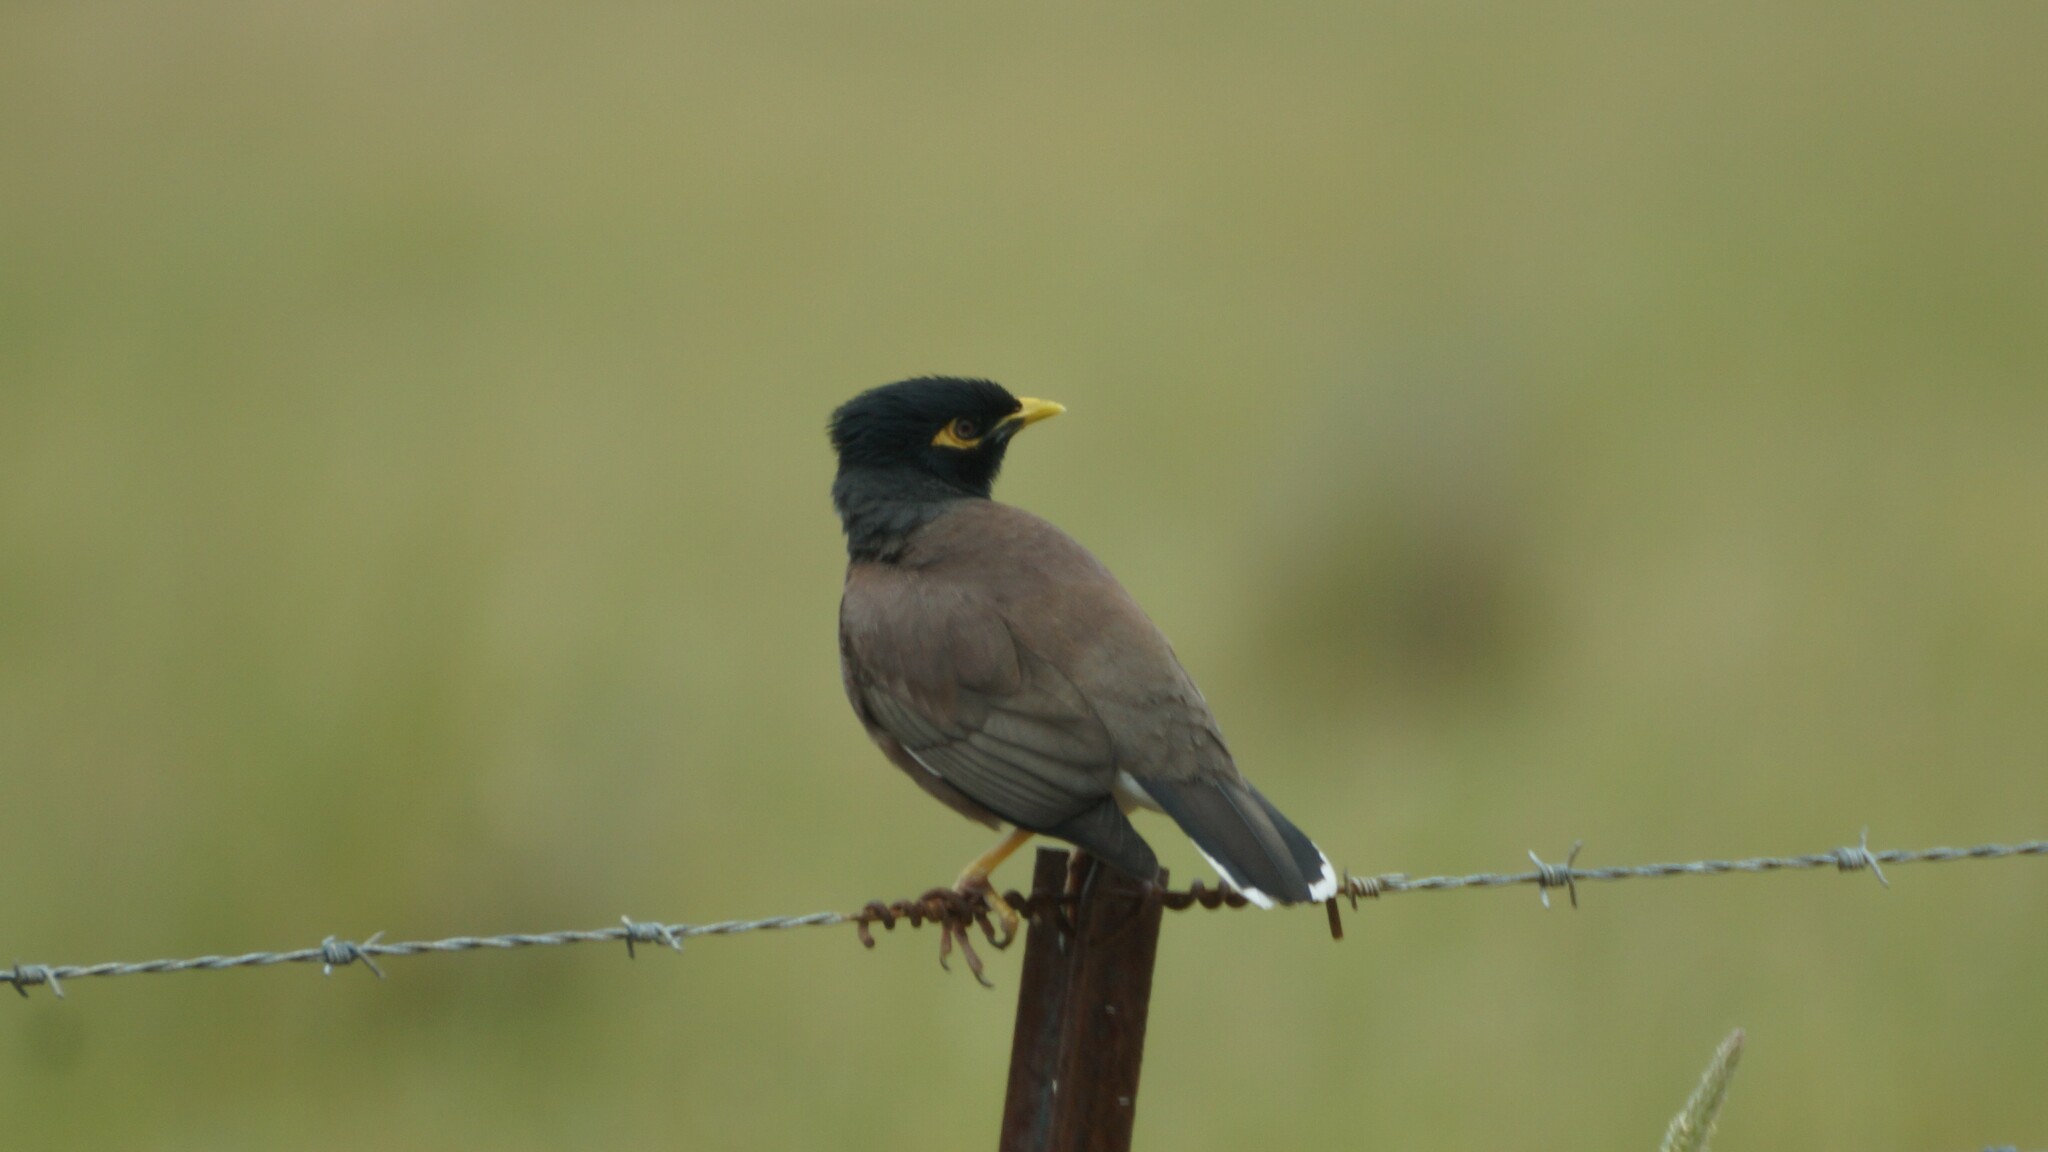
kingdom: Animalia
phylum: Chordata
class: Aves
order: Passeriformes
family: Sturnidae
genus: Acridotheres
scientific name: Acridotheres tristis
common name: Common myna
